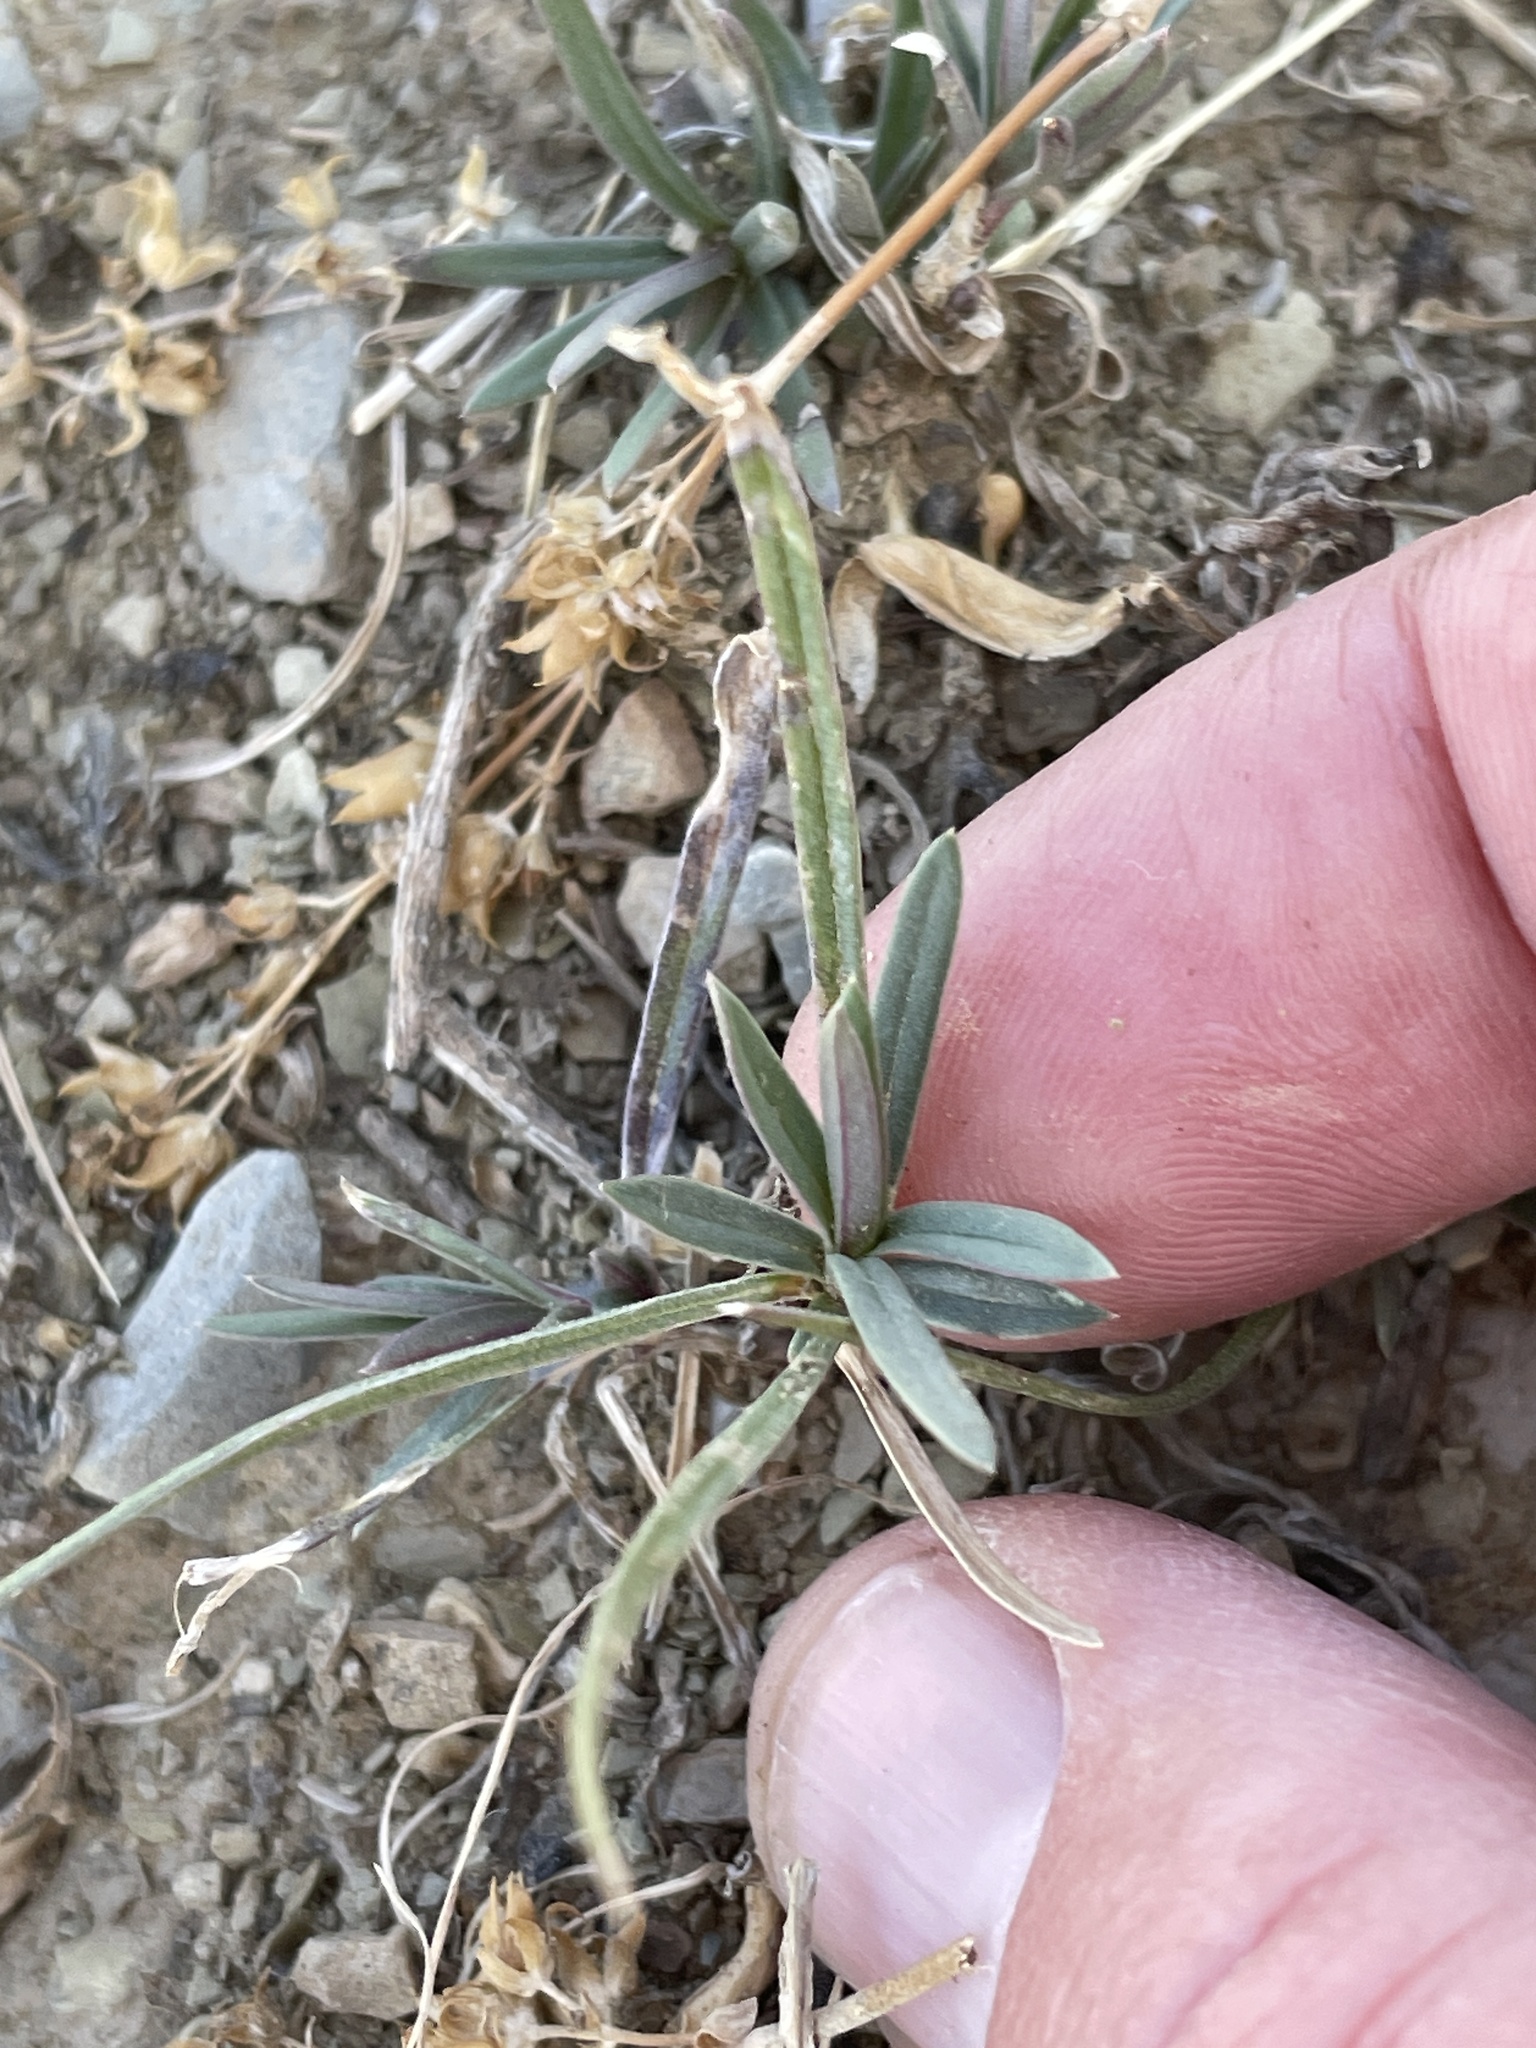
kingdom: Plantae
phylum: Tracheophyta
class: Magnoliopsida
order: Ericales
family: Polemoniaceae
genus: Phlox
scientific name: Phlox longifolia
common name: Longleaf phlox
